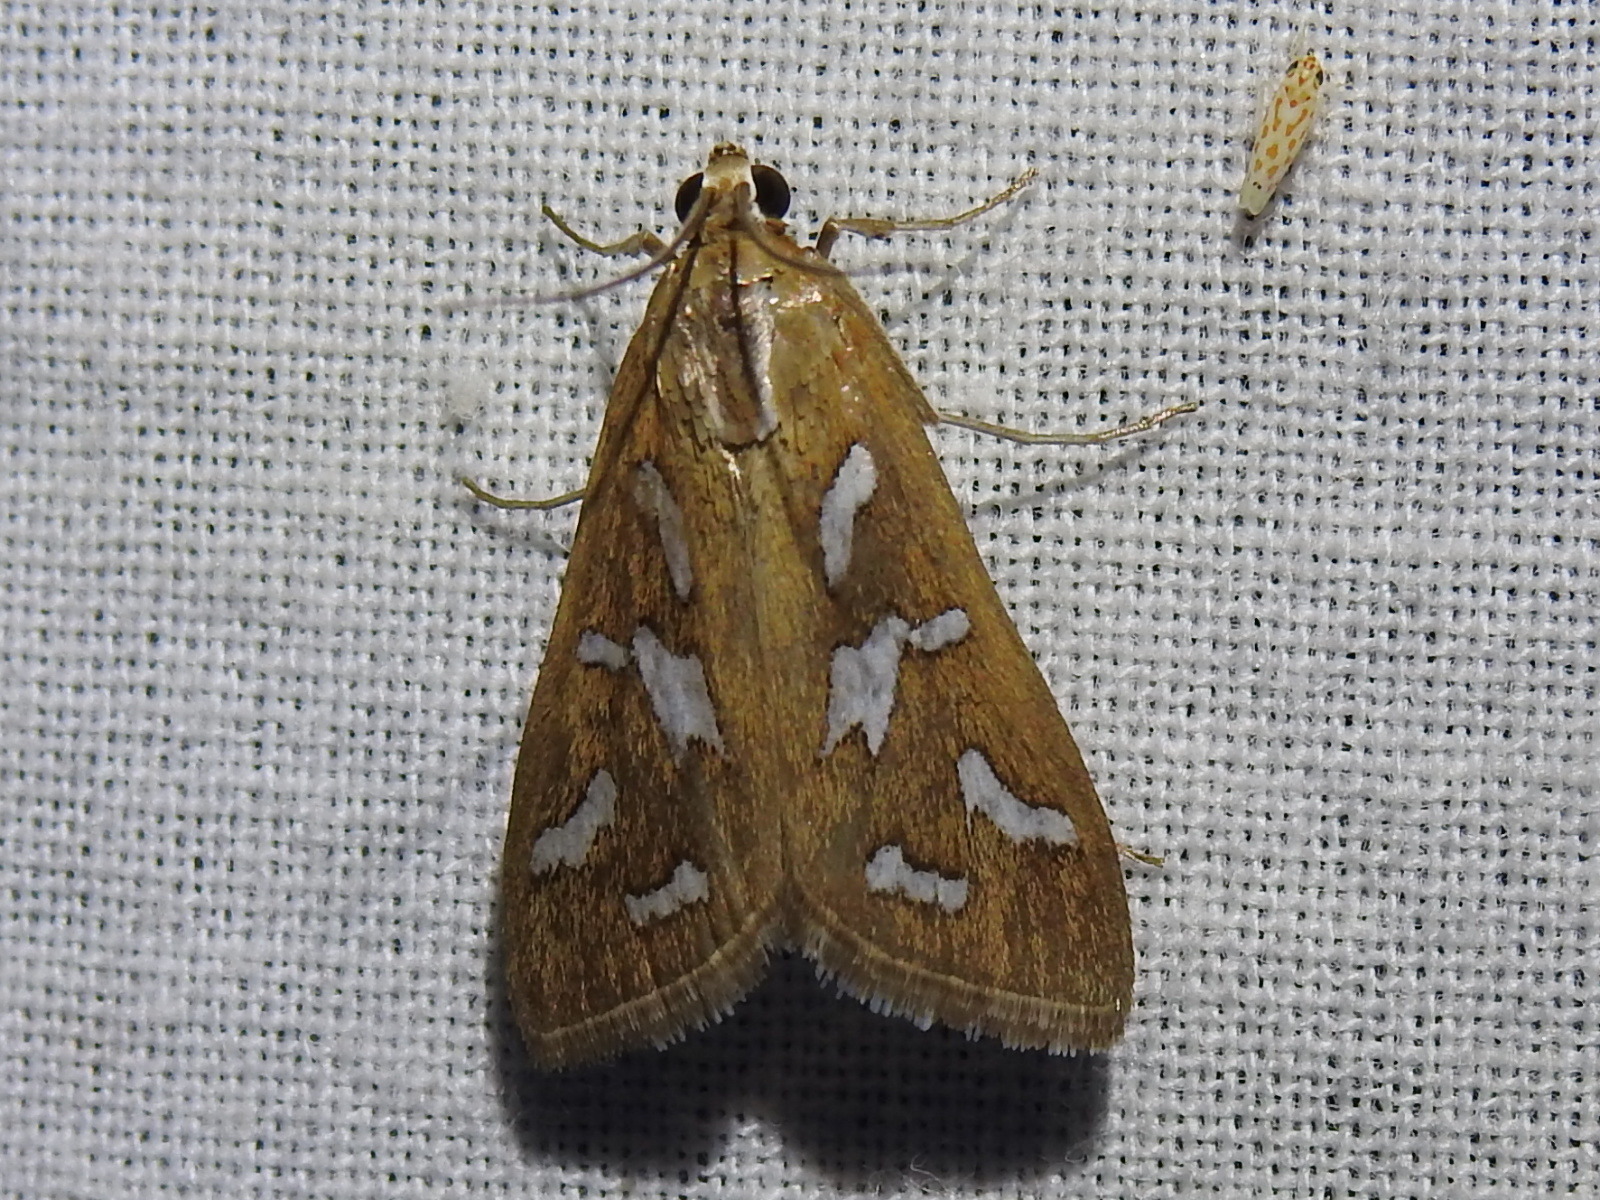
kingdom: Animalia
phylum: Arthropoda
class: Insecta
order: Lepidoptera
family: Crambidae
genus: Diastictis
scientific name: Diastictis fracturalis
